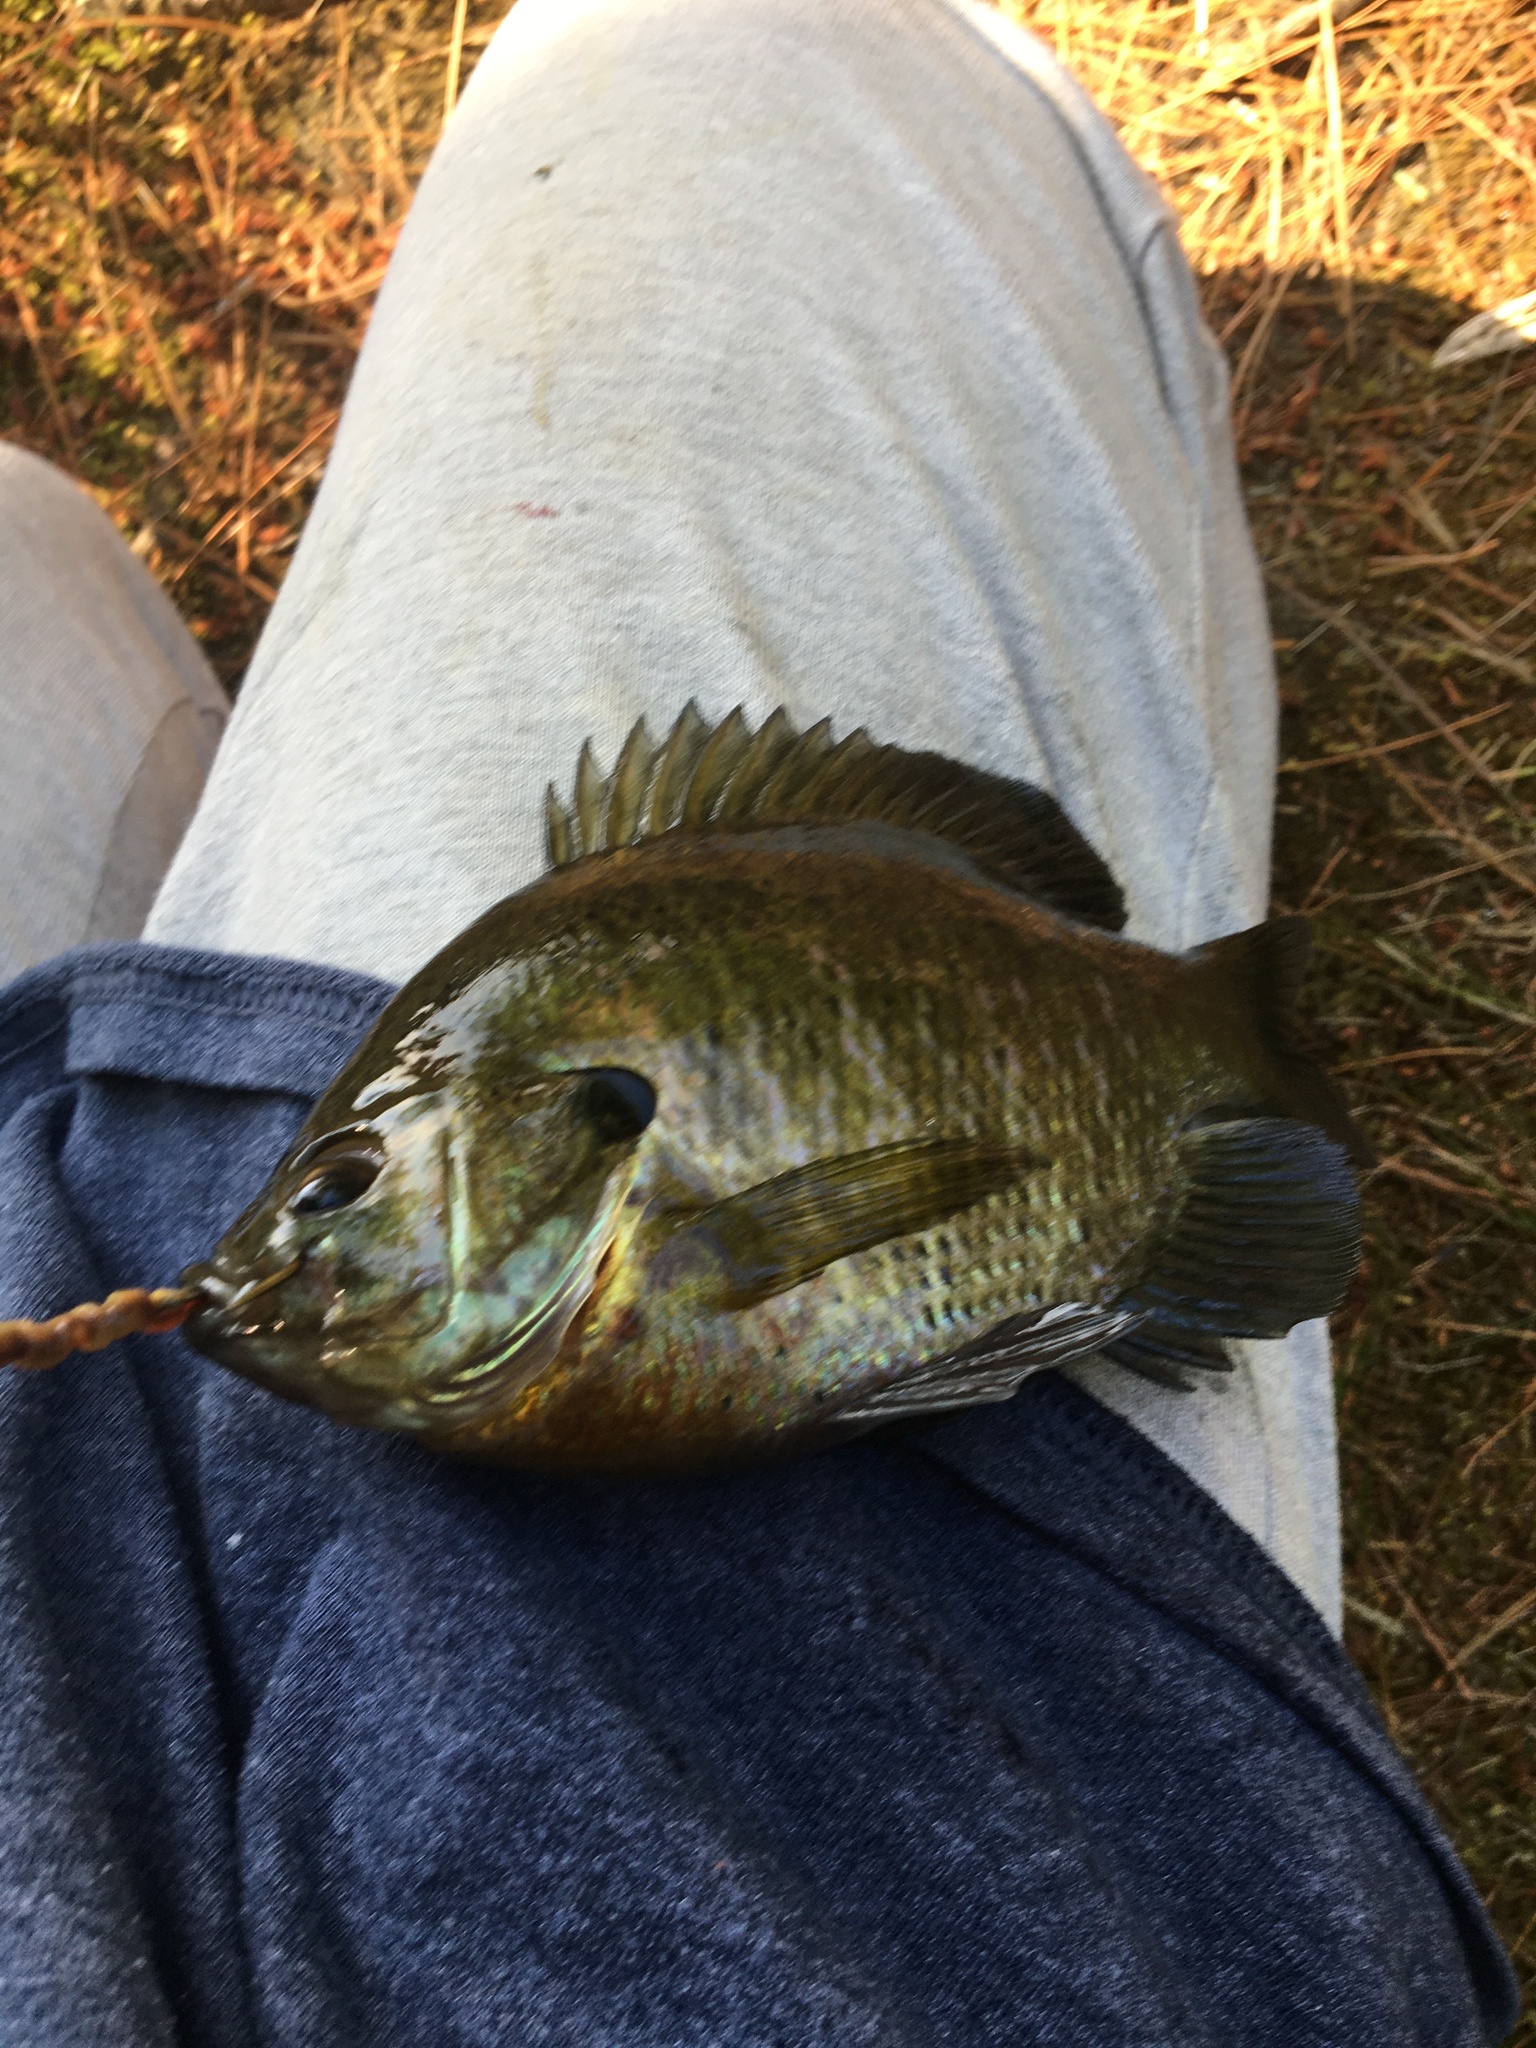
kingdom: Animalia
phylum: Chordata
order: Perciformes
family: Centrarchidae
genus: Lepomis
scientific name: Lepomis macrochirus
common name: Bluegill
